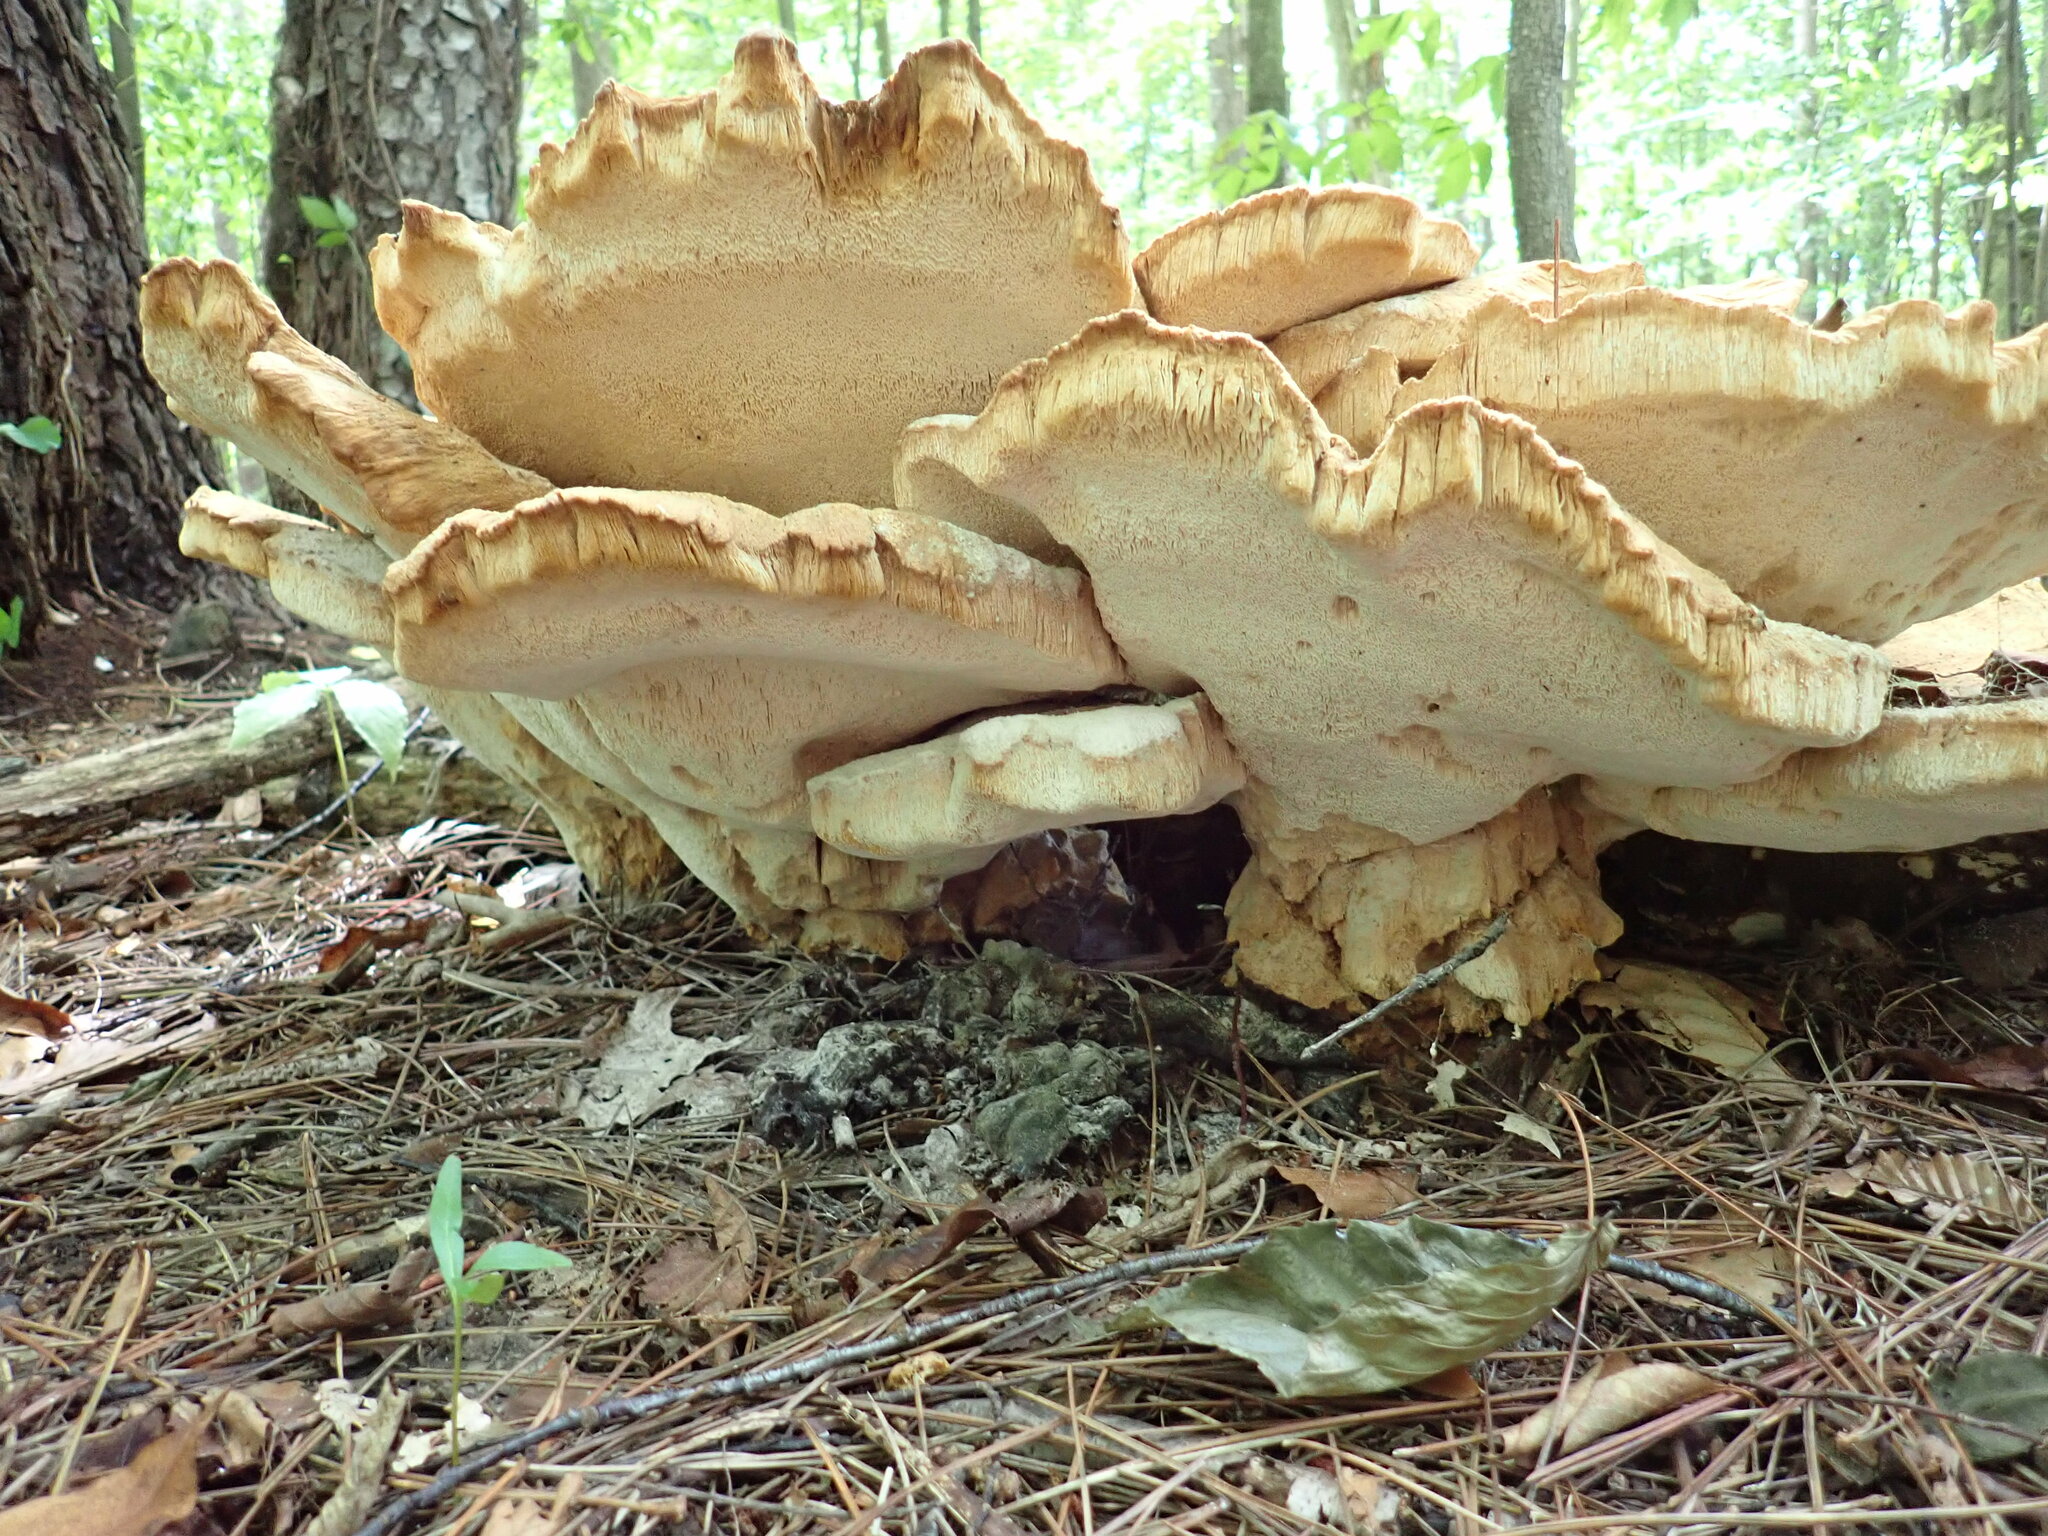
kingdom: Fungi
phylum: Basidiomycota
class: Agaricomycetes
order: Russulales
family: Bondarzewiaceae
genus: Bondarzewia
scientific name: Bondarzewia berkeleyi
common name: Berkeley's polypore
